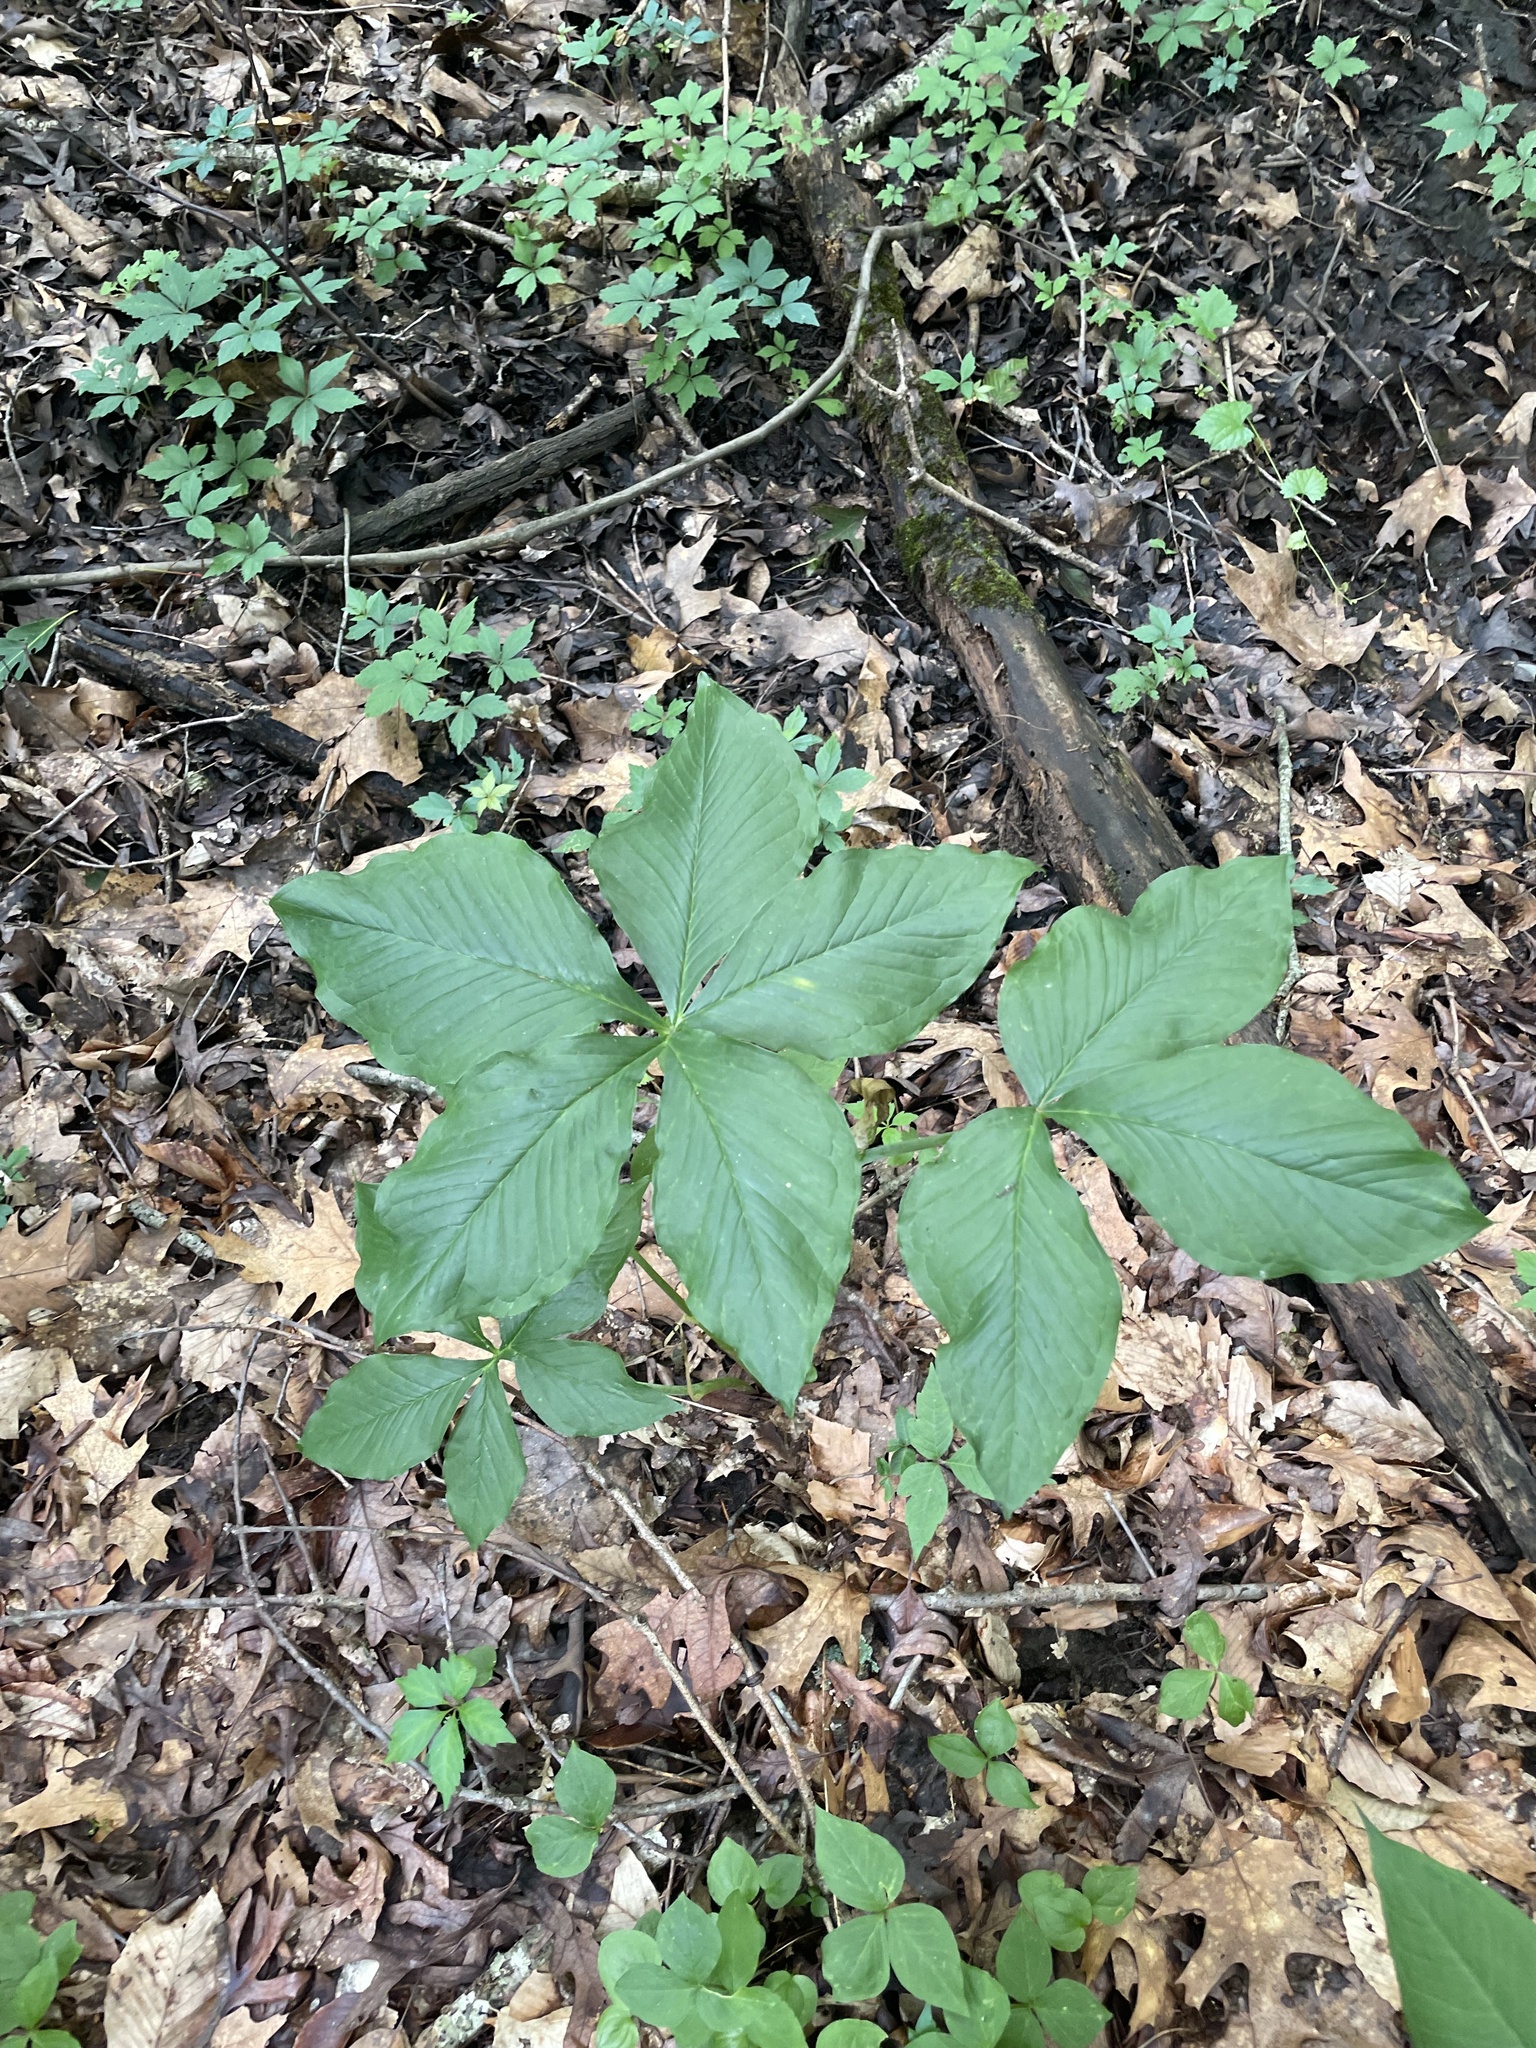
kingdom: Plantae
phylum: Tracheophyta
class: Liliopsida
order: Alismatales
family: Araceae
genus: Arisaema
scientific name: Arisaema quinatum
